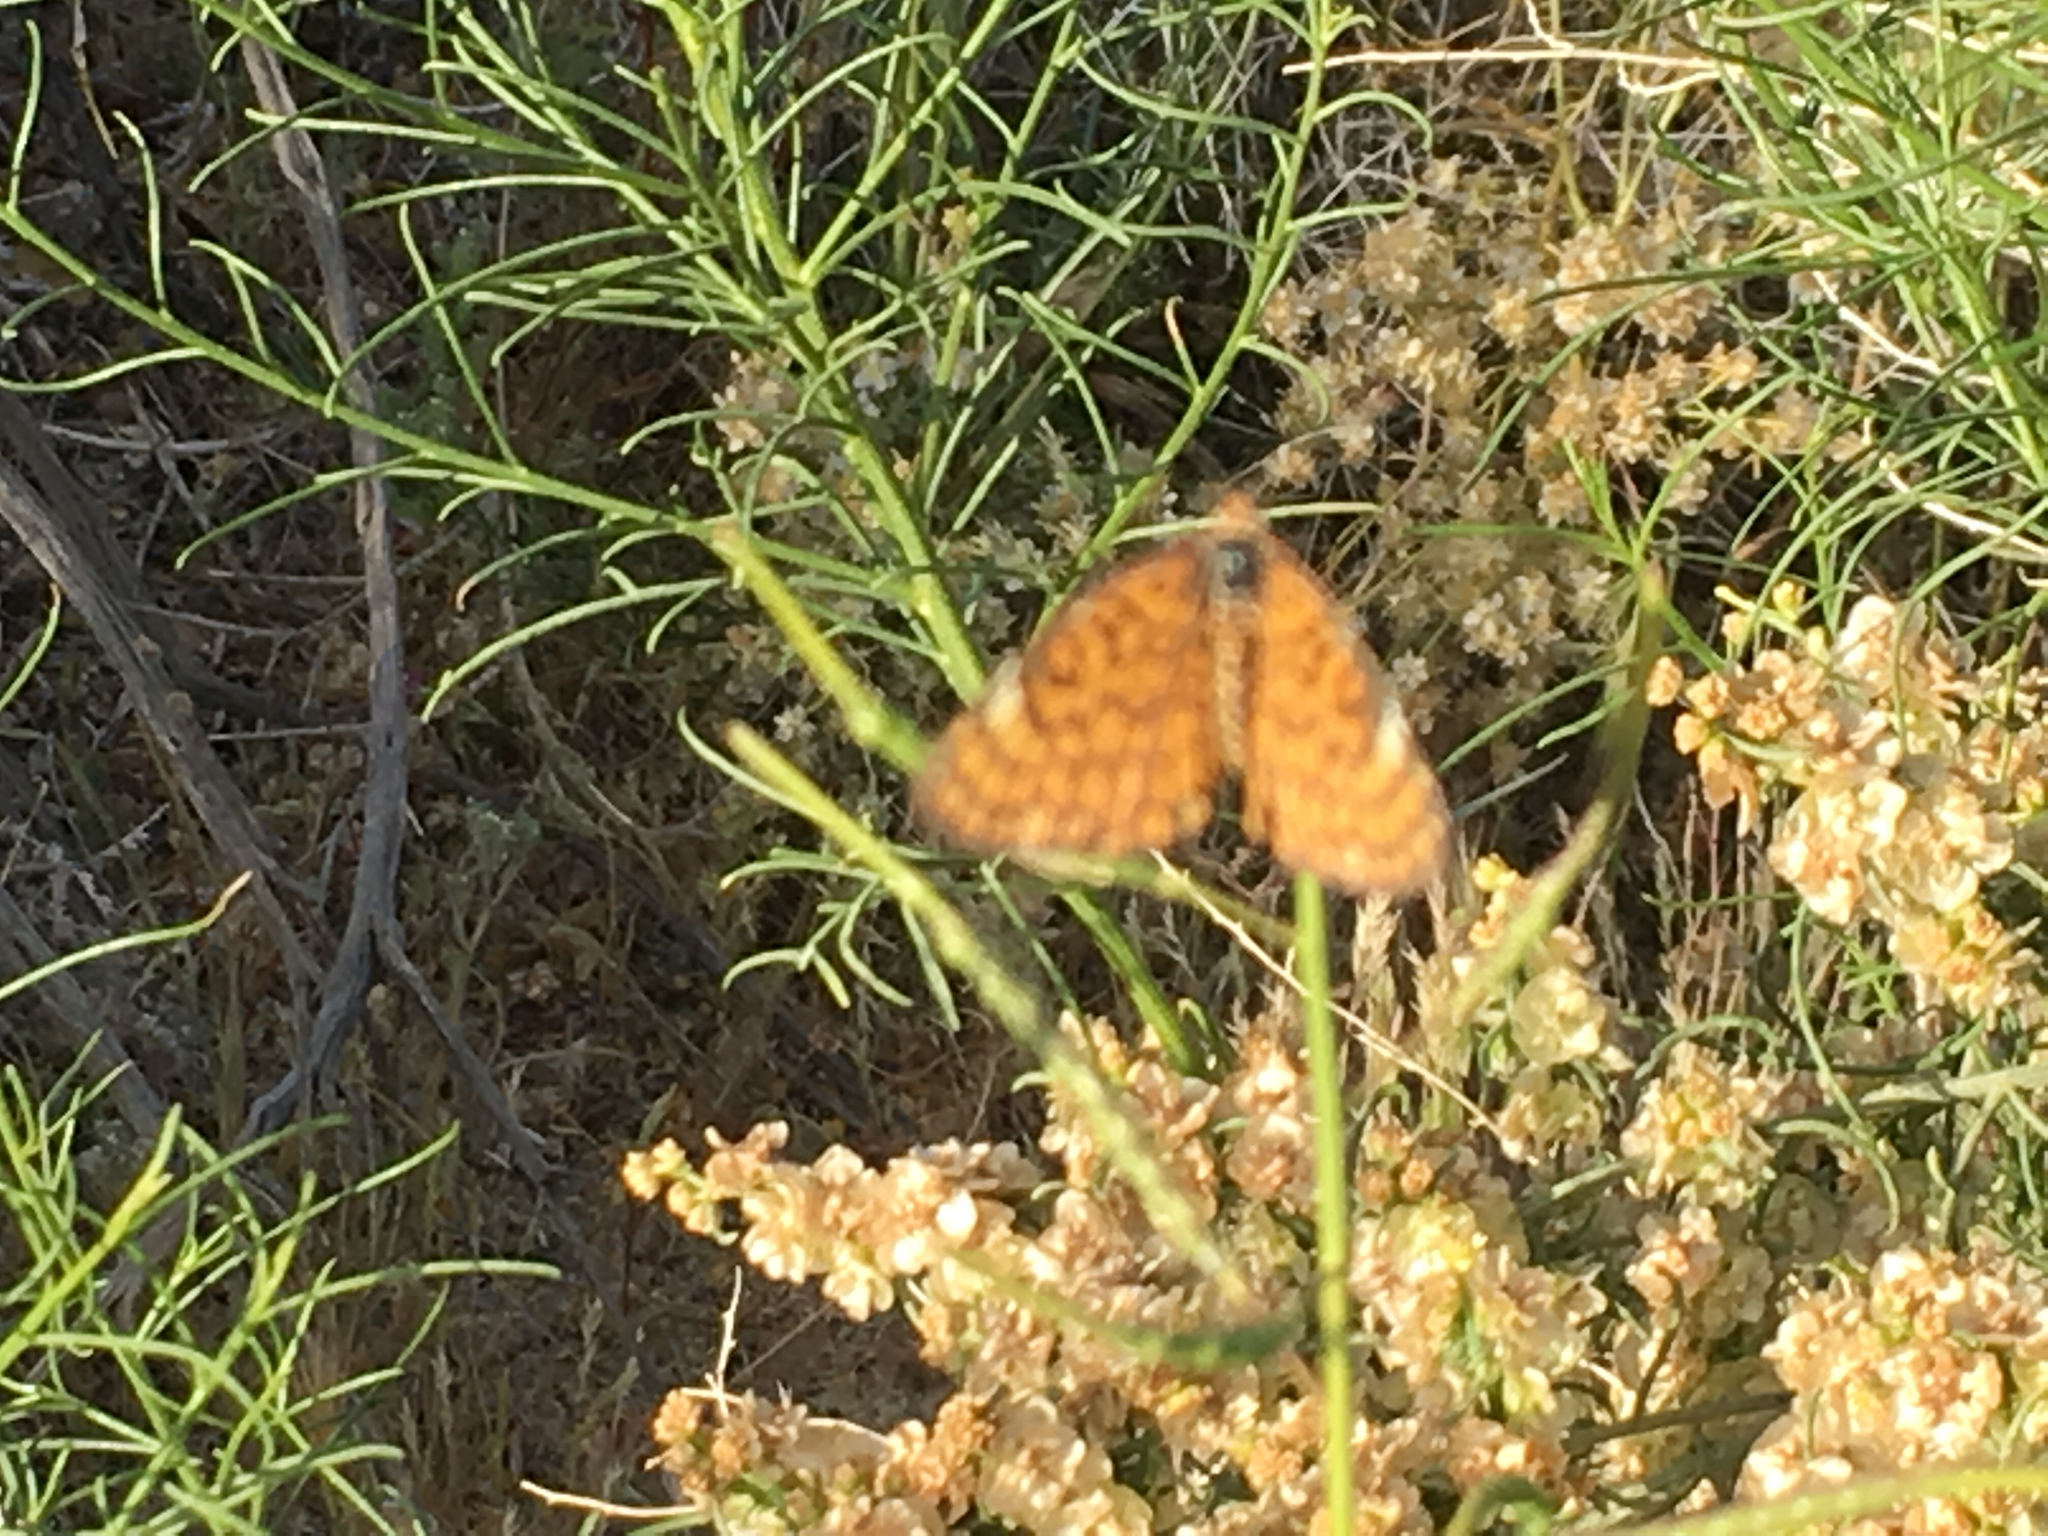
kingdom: Animalia
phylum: Arthropoda
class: Insecta
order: Lepidoptera
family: Nymphalidae
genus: Dymasia
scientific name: Dymasia dymas
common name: Tiny checkerspot
